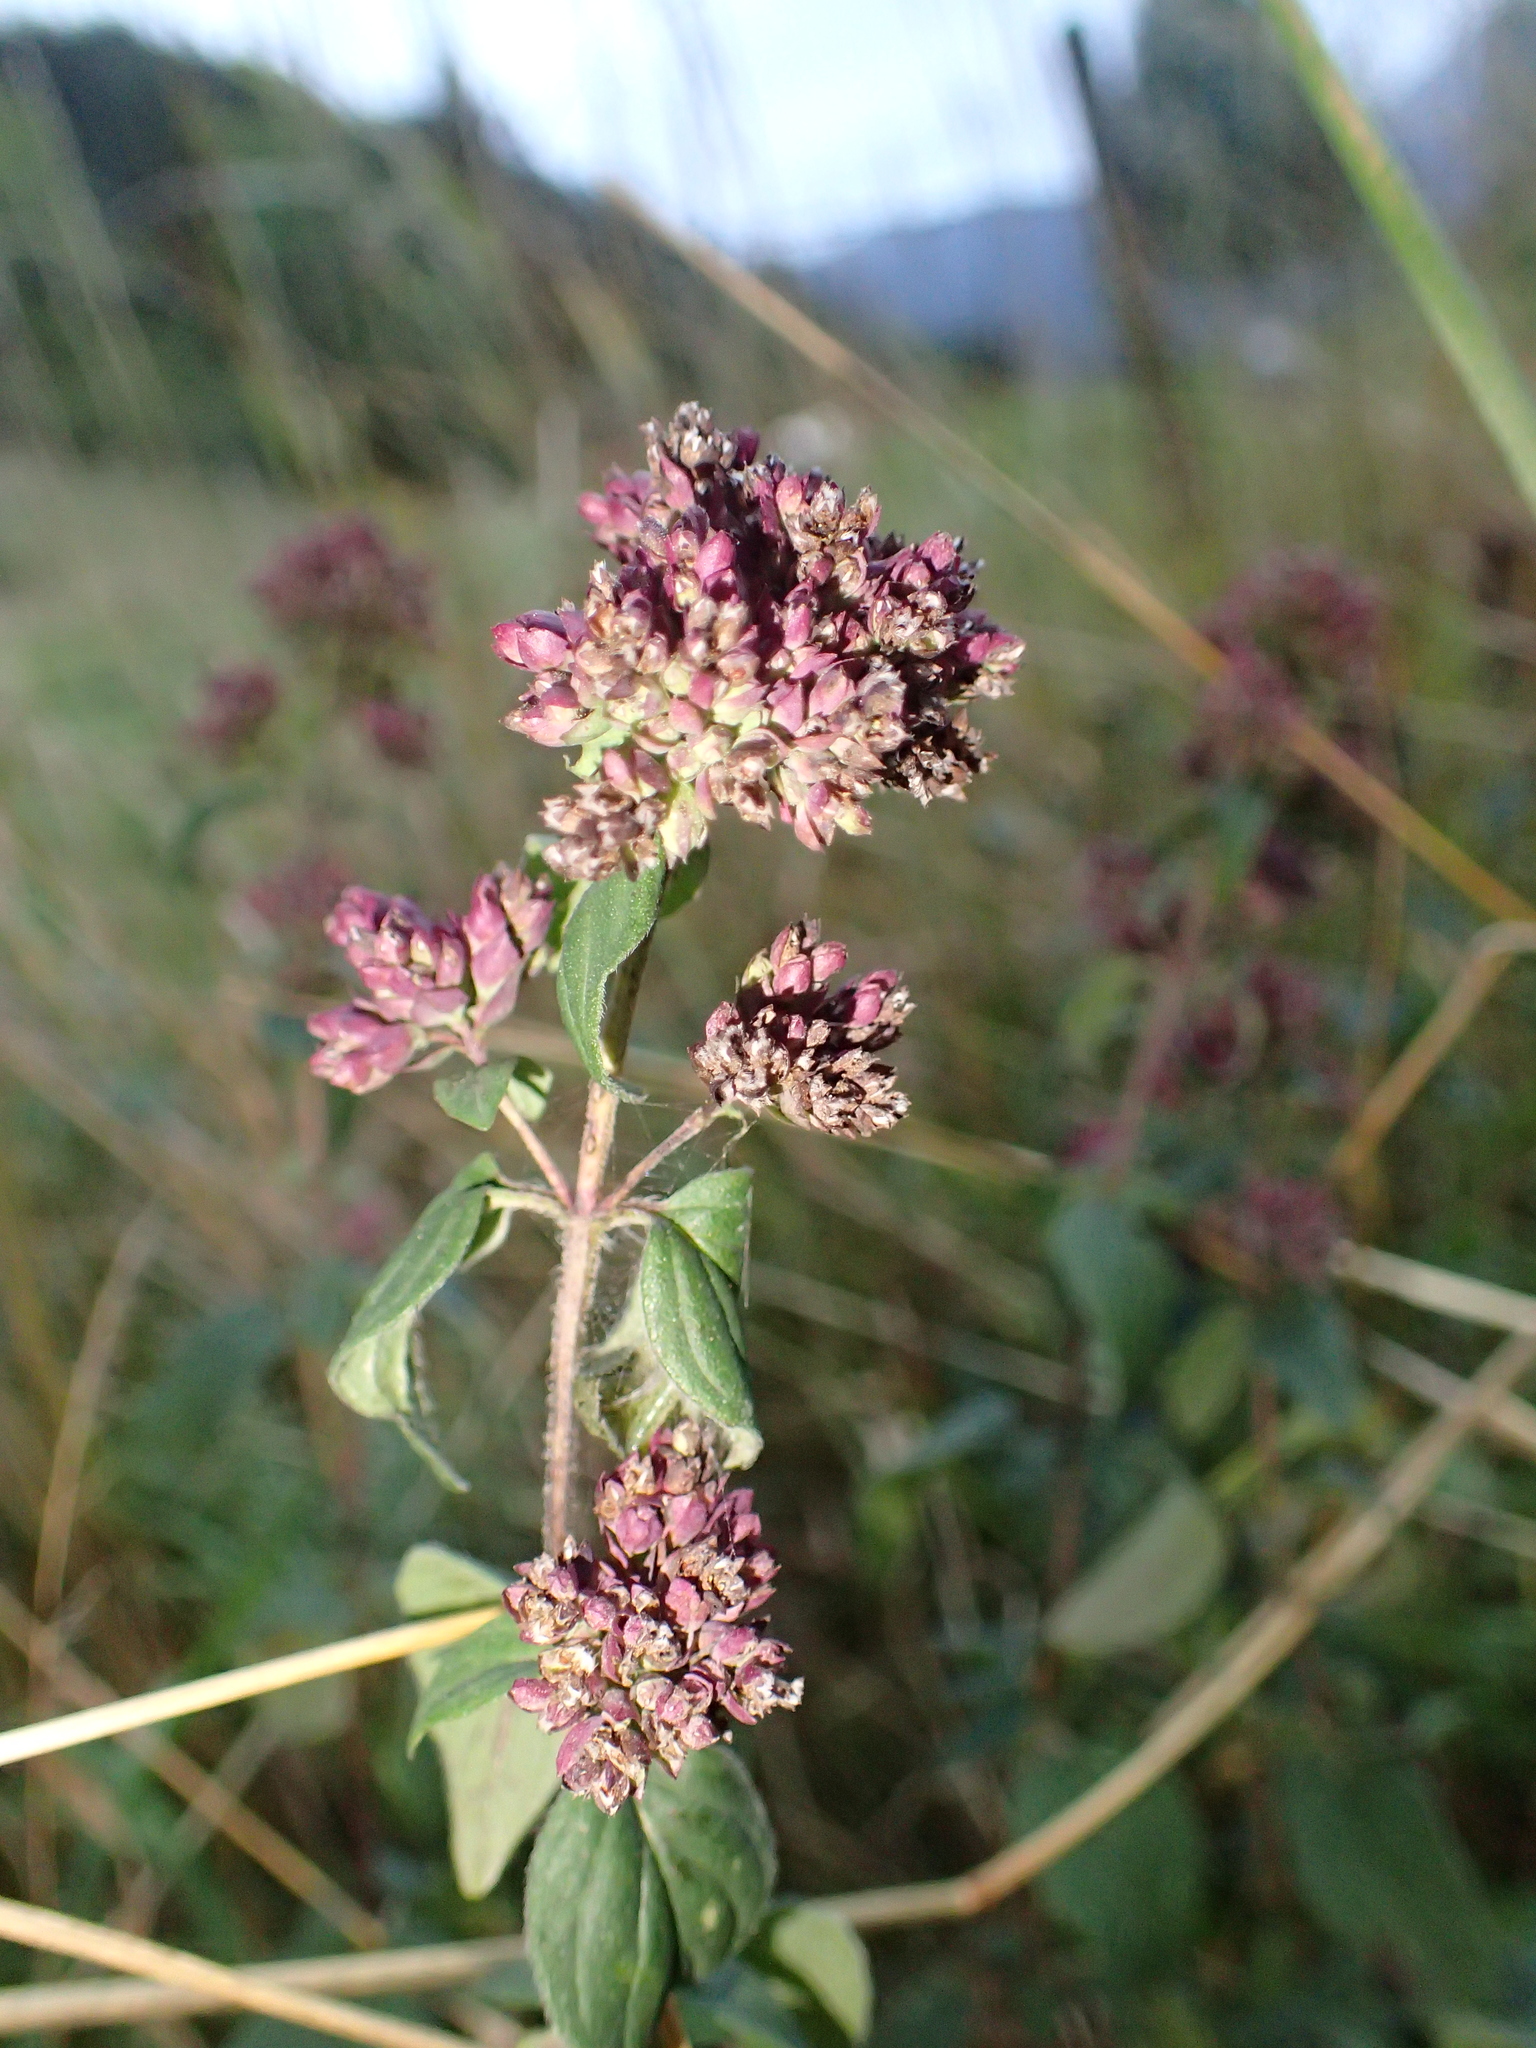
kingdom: Plantae
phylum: Tracheophyta
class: Magnoliopsida
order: Lamiales
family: Lamiaceae
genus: Origanum
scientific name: Origanum vulgare
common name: Wild marjoram
